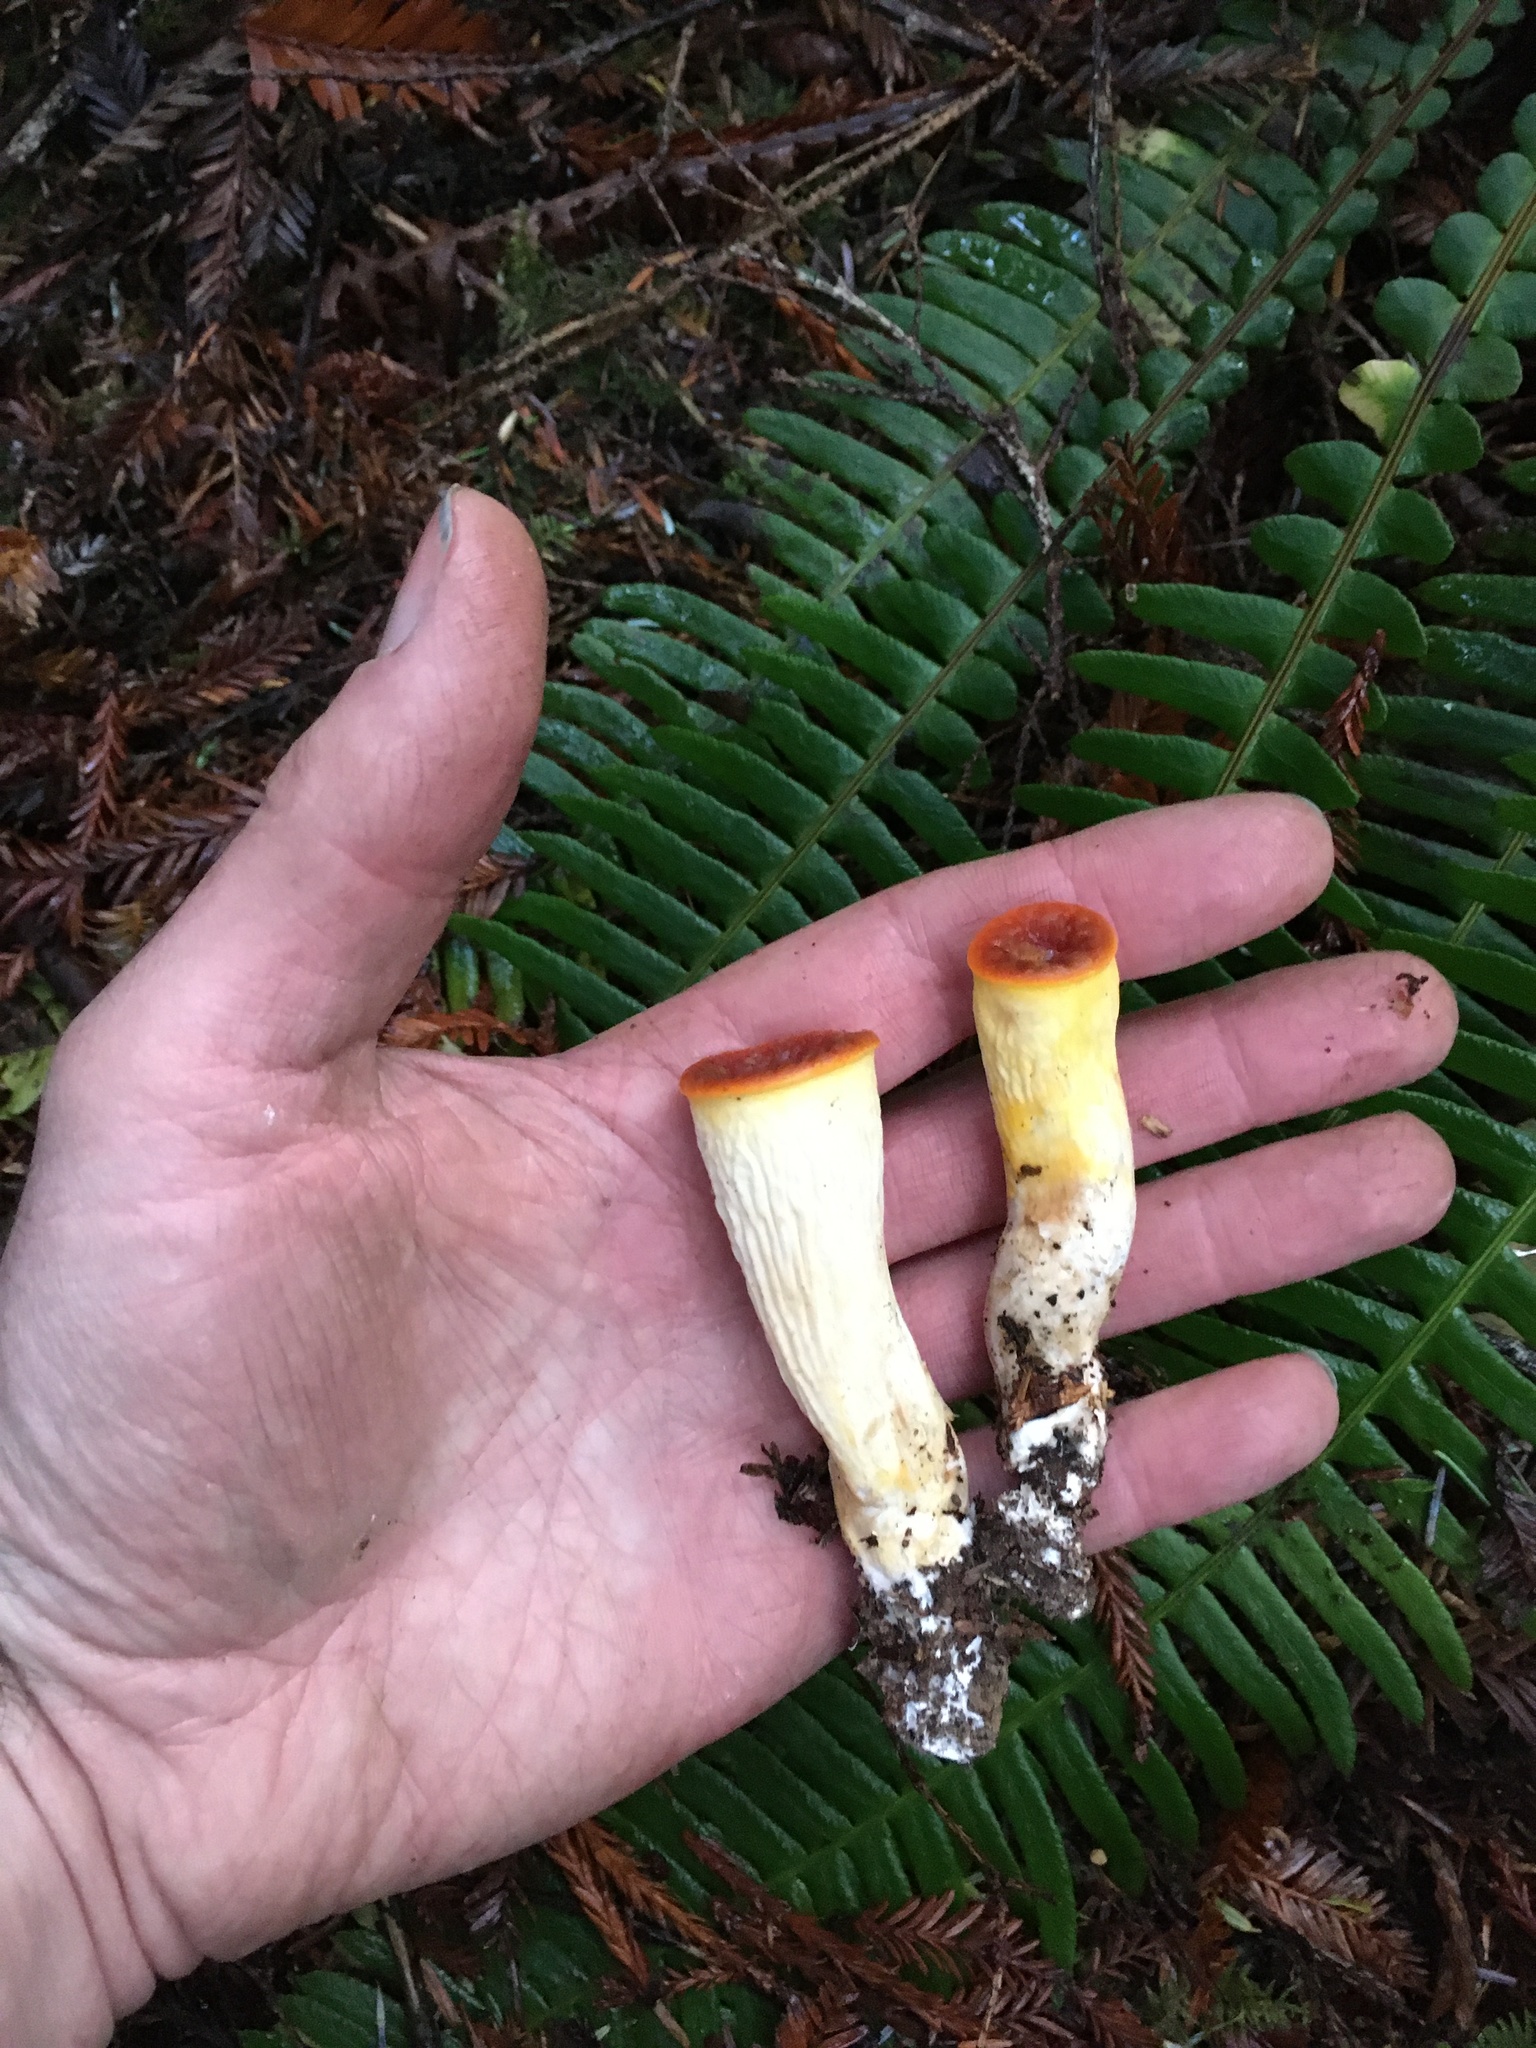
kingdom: Fungi
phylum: Basidiomycota
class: Agaricomycetes
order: Gomphales
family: Gomphaceae
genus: Turbinellus
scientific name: Turbinellus floccosus
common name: Scaly chanterelle
